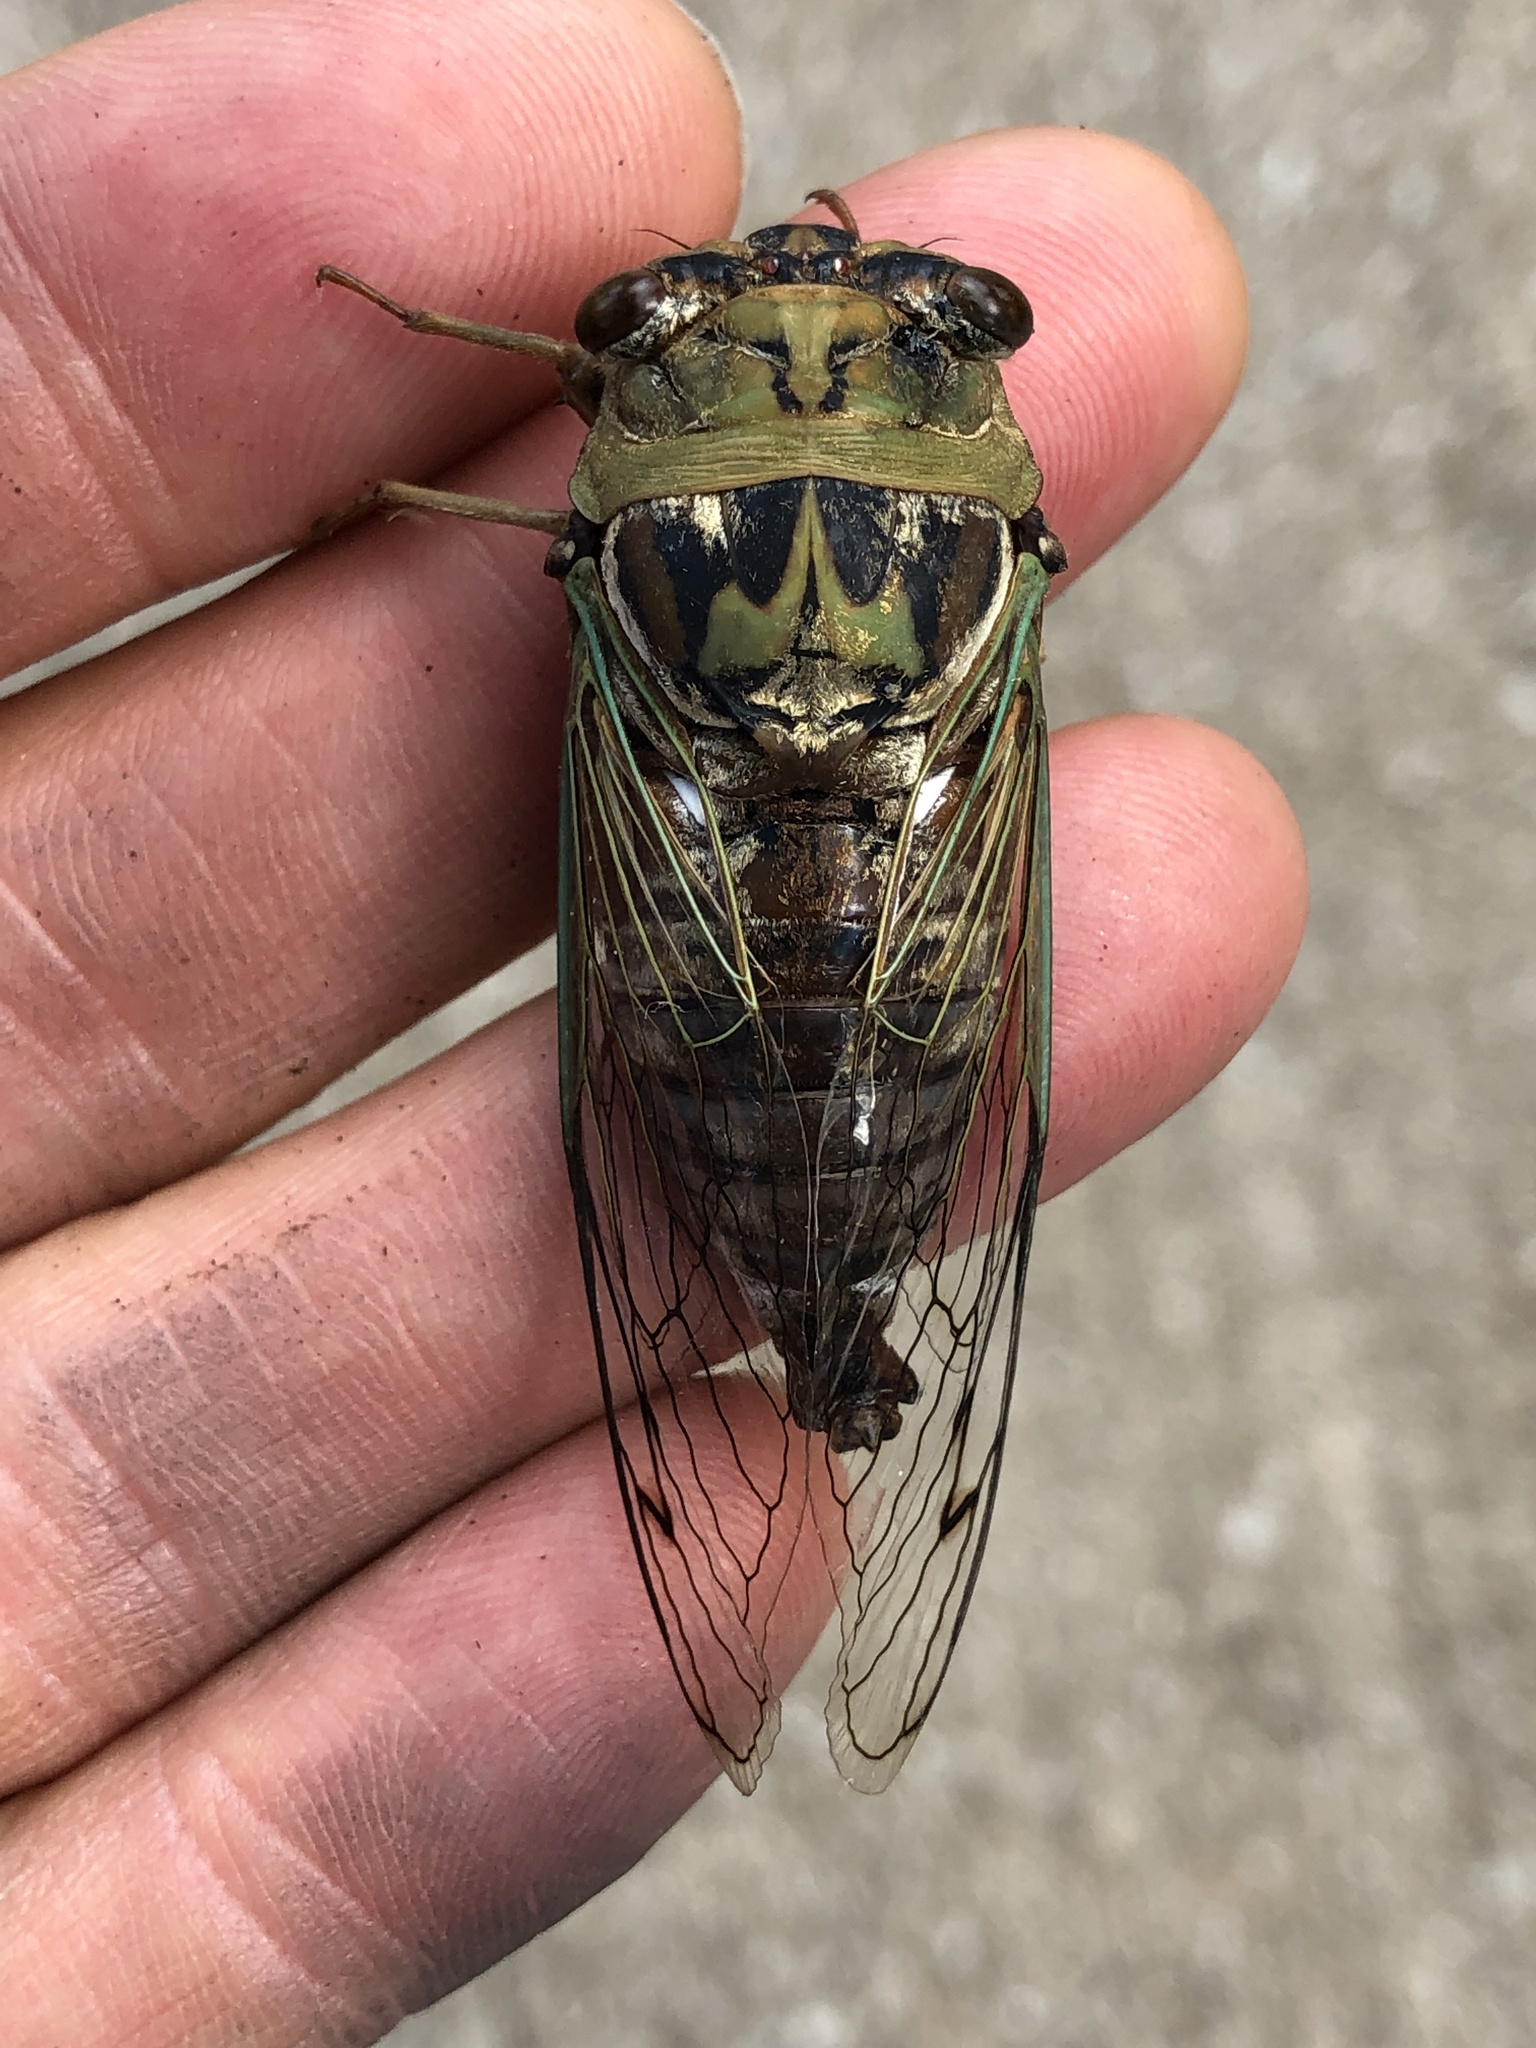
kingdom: Animalia
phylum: Arthropoda
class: Insecta
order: Hemiptera
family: Cicadidae
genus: Megatibicen
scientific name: Megatibicen resh
